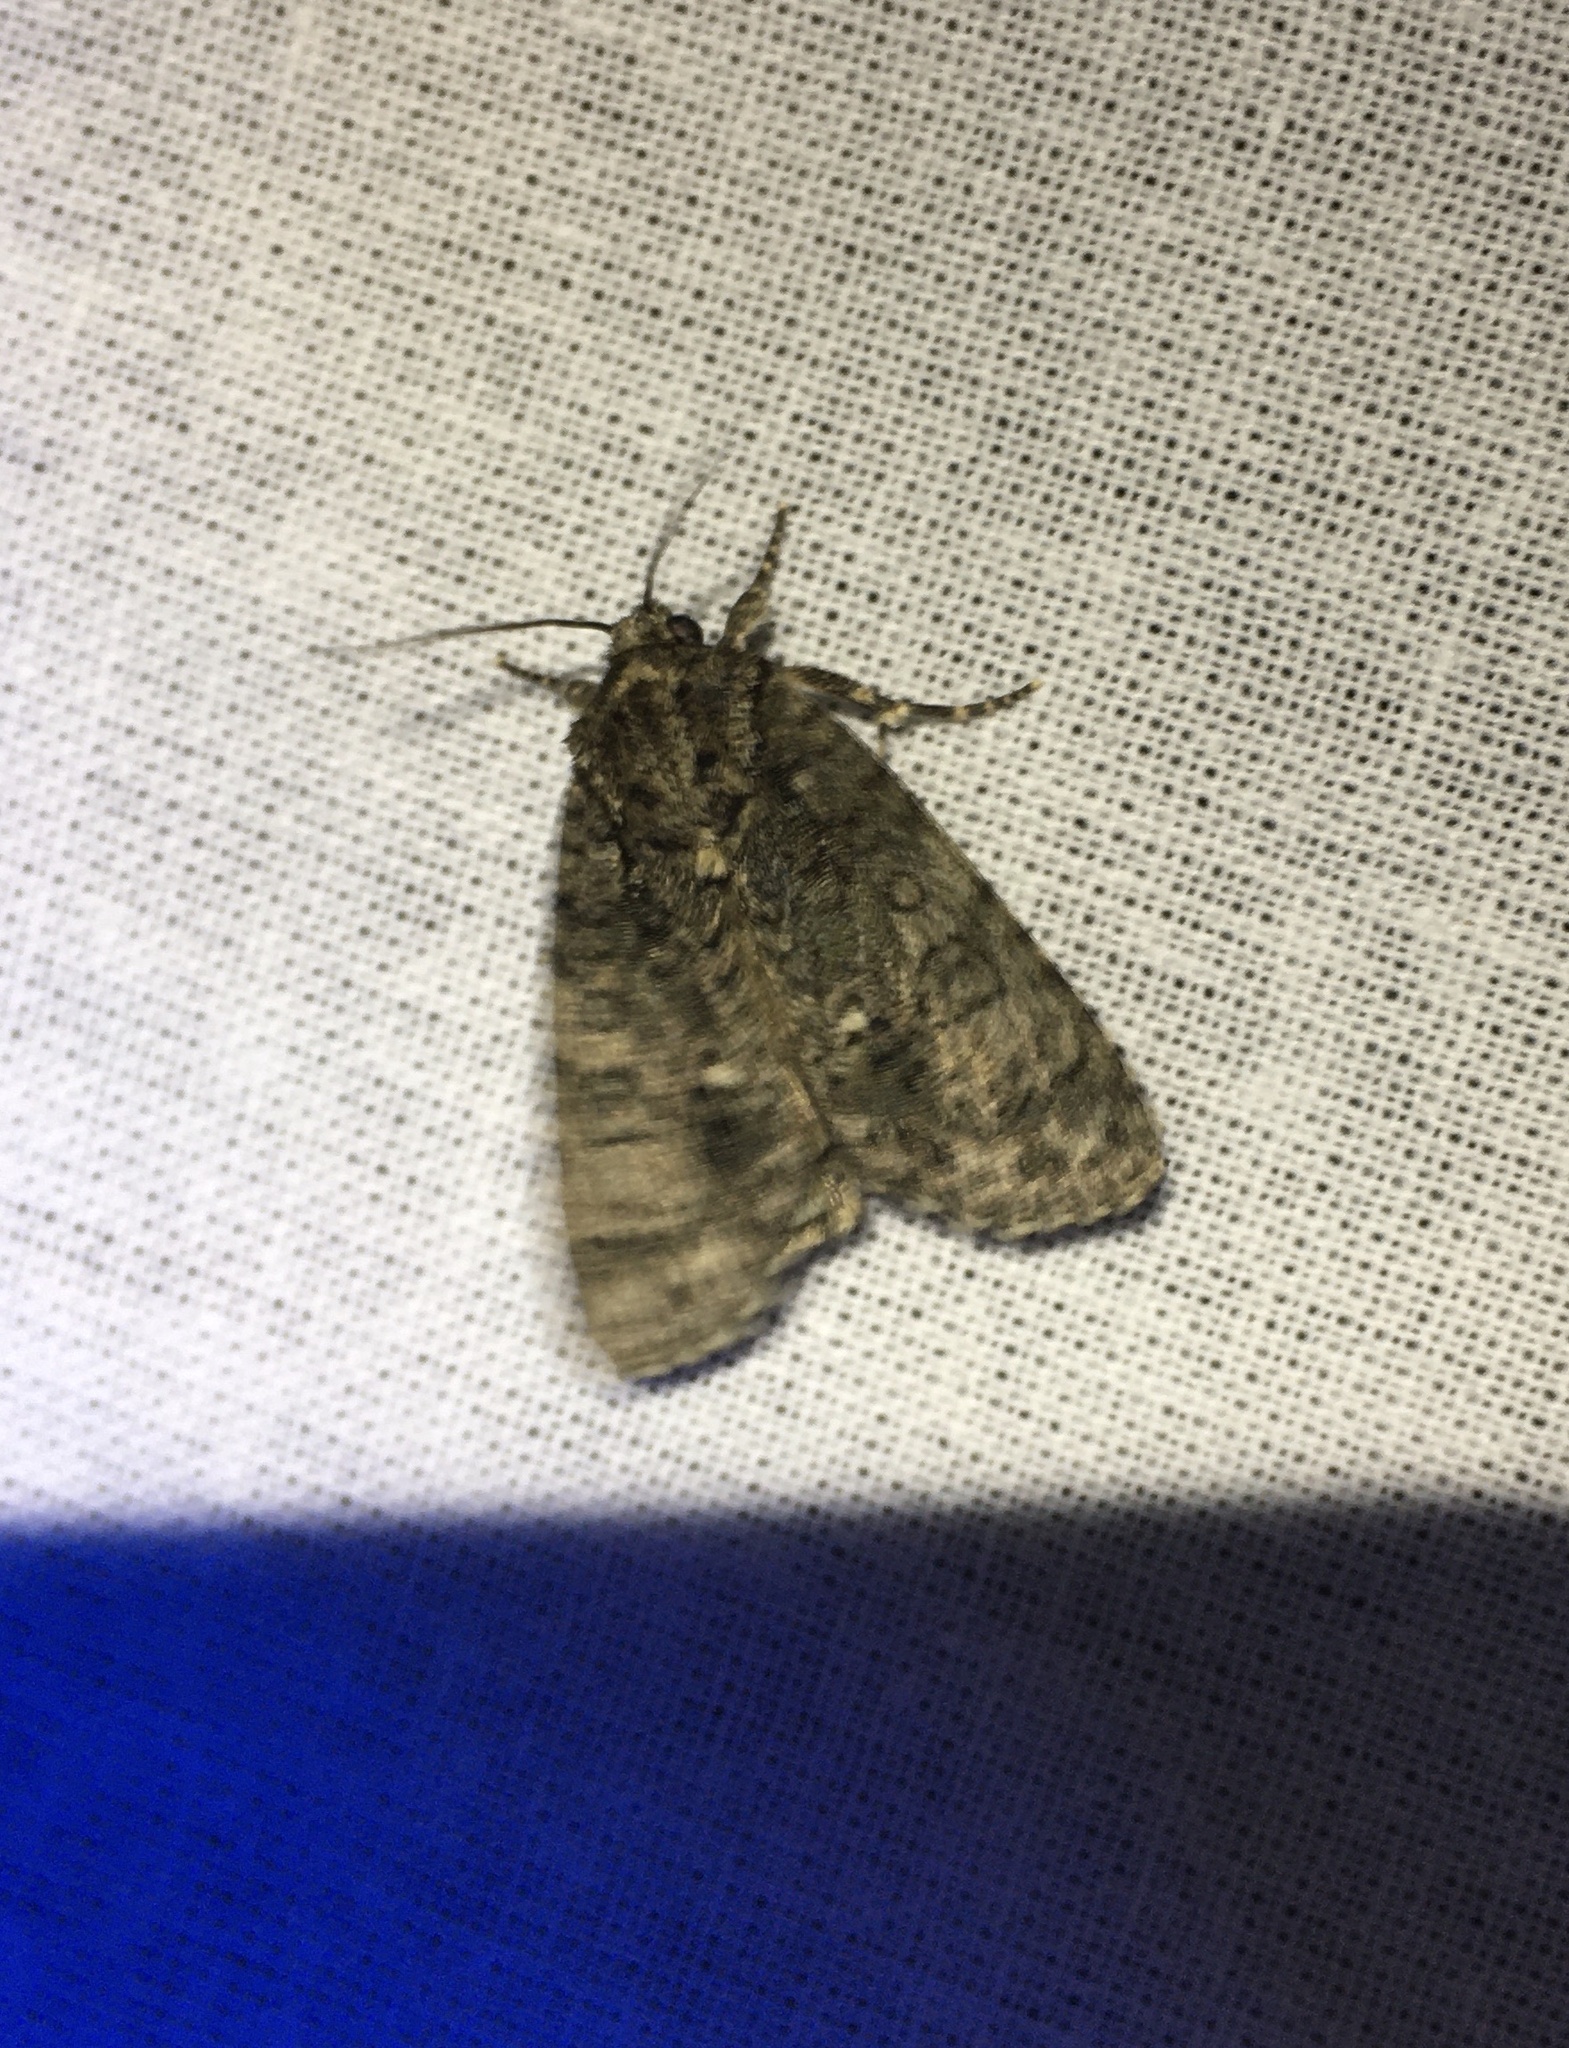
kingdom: Animalia
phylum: Arthropoda
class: Insecta
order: Lepidoptera
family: Noctuidae
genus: Acronicta
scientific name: Acronicta rumicis
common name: Knot grass
